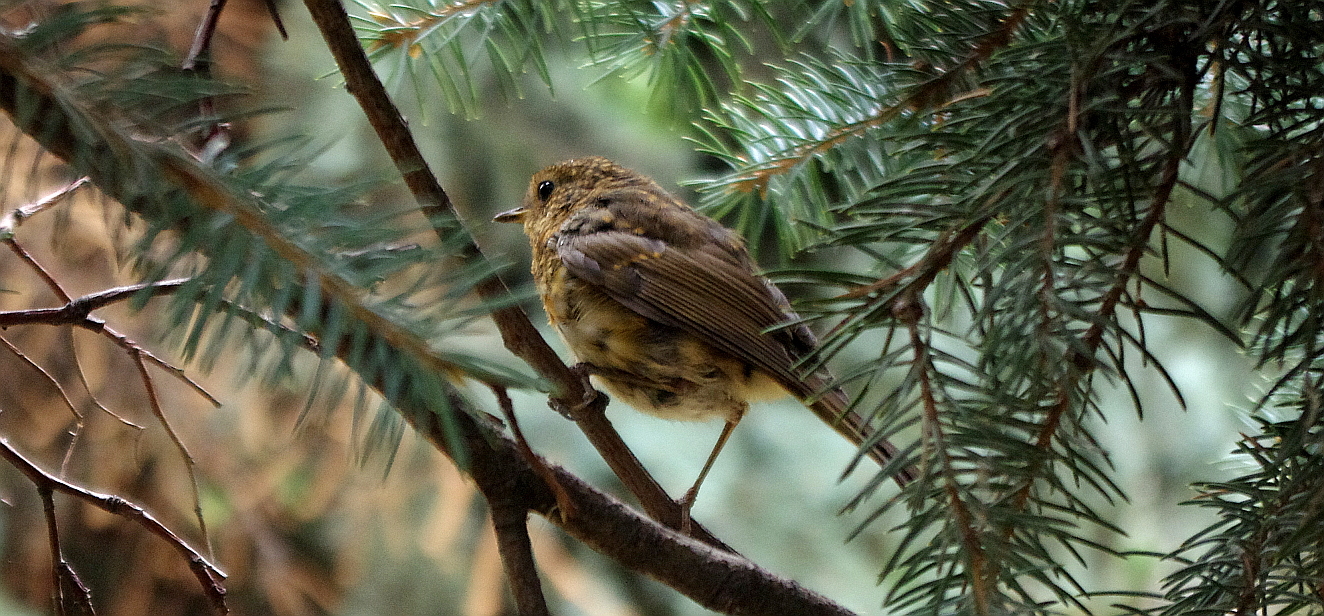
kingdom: Animalia
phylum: Chordata
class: Aves
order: Passeriformes
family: Muscicapidae
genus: Erithacus
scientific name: Erithacus rubecula
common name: European robin
